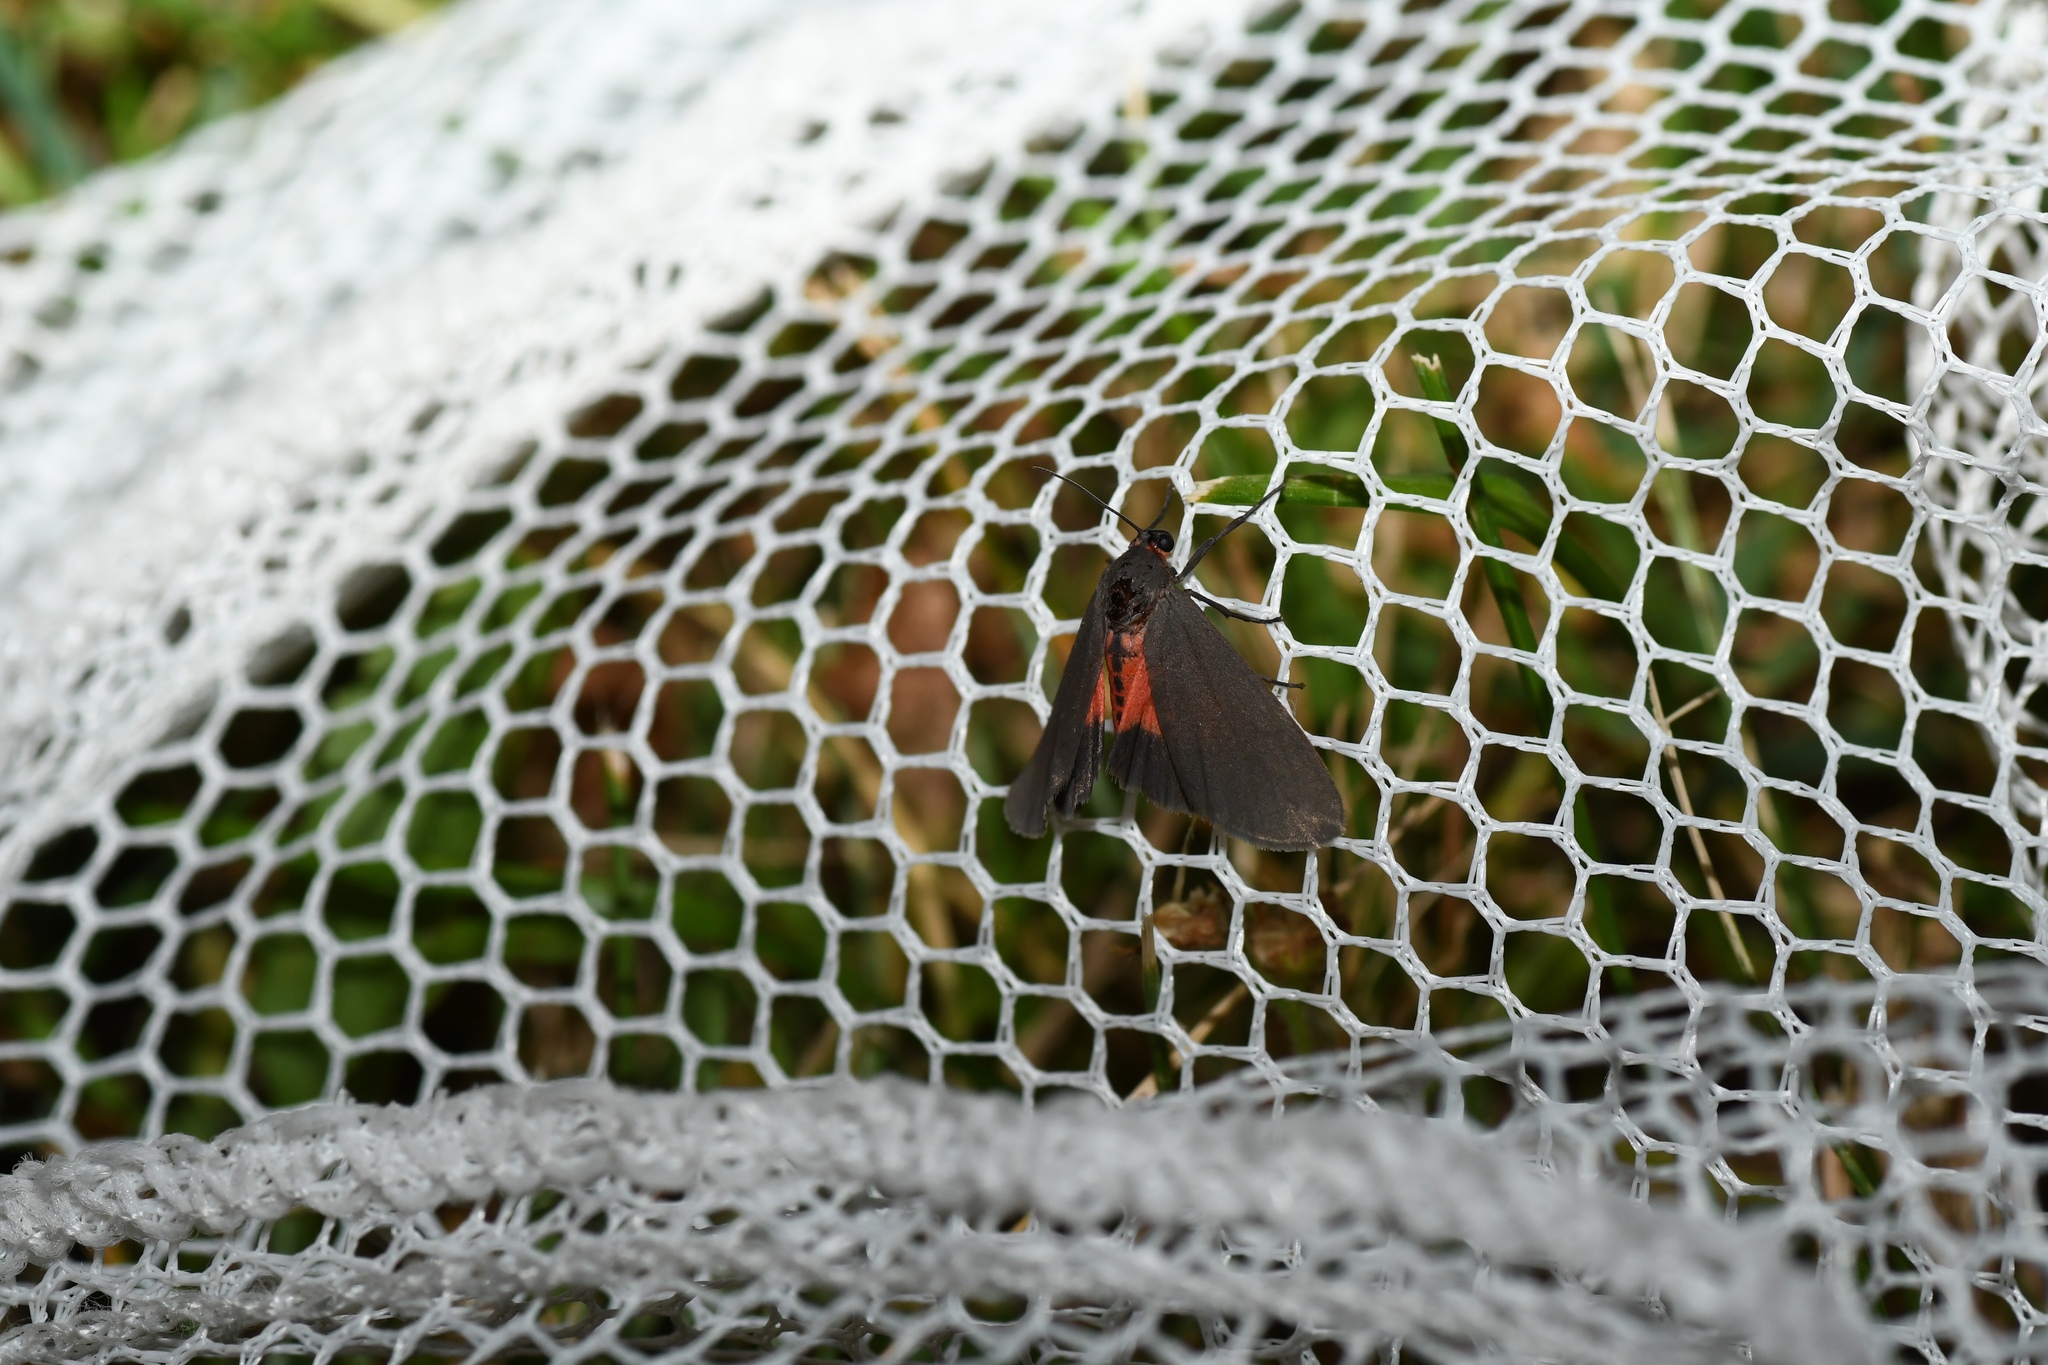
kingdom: Animalia
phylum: Arthropoda
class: Insecta
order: Lepidoptera
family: Erebidae
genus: Virbia
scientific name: Virbia laeta
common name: Joyful holomelina moth
